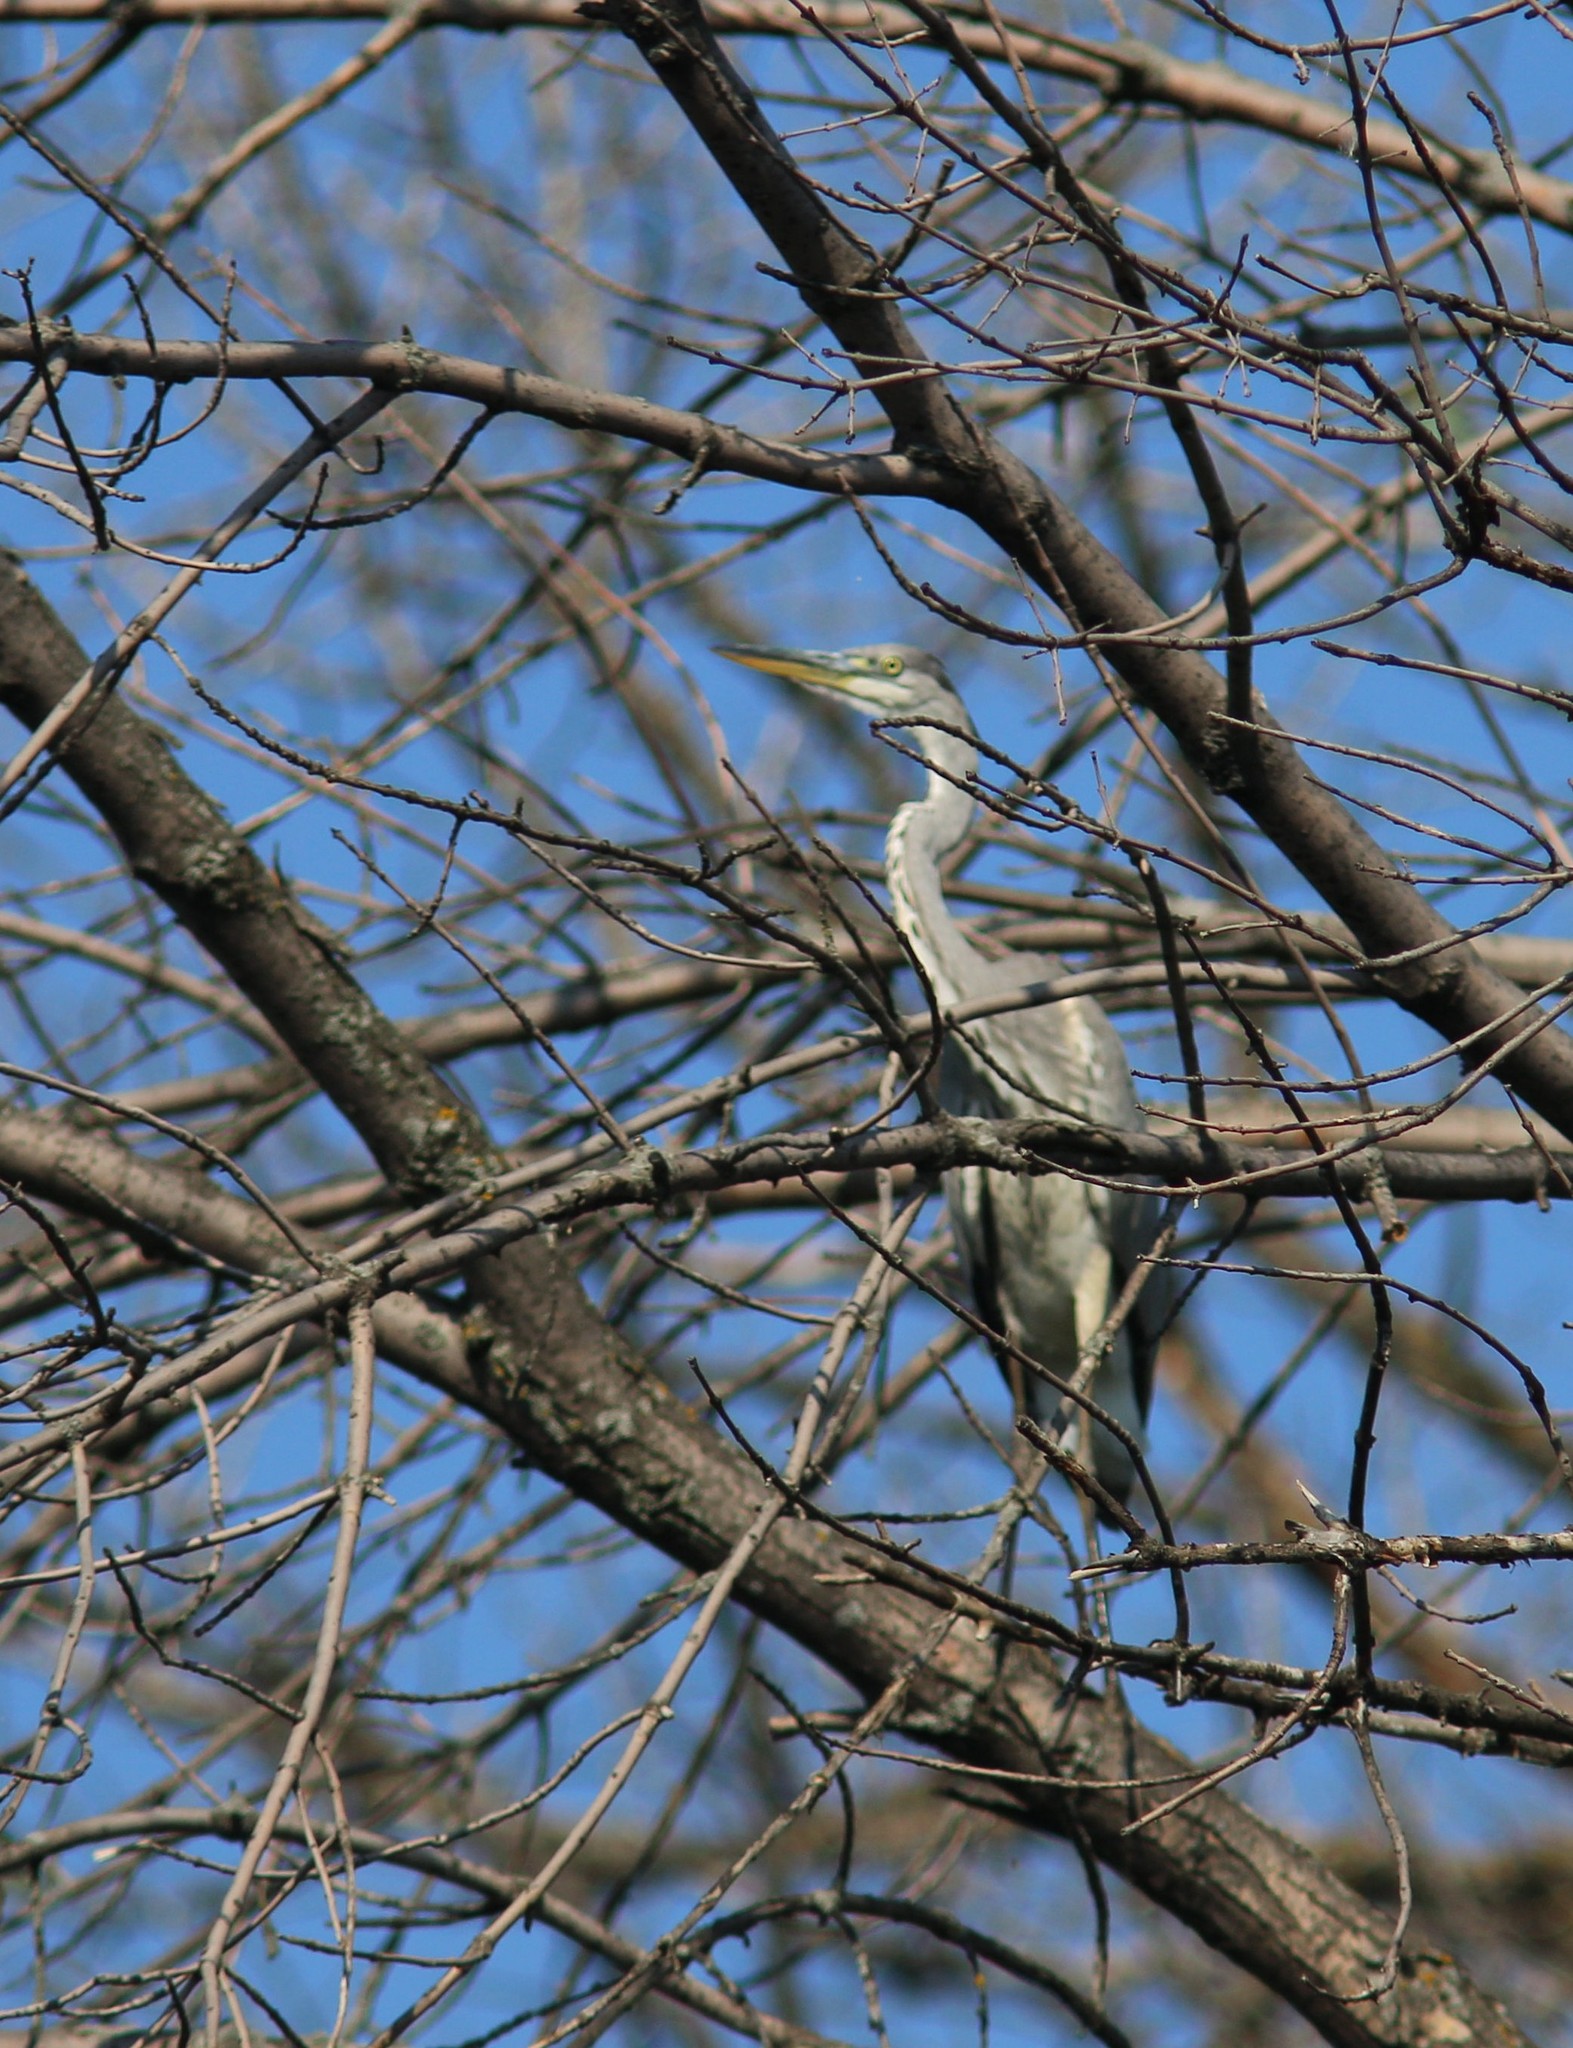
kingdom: Animalia
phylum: Chordata
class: Aves
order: Pelecaniformes
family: Ardeidae
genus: Ardea
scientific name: Ardea cinerea
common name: Grey heron
